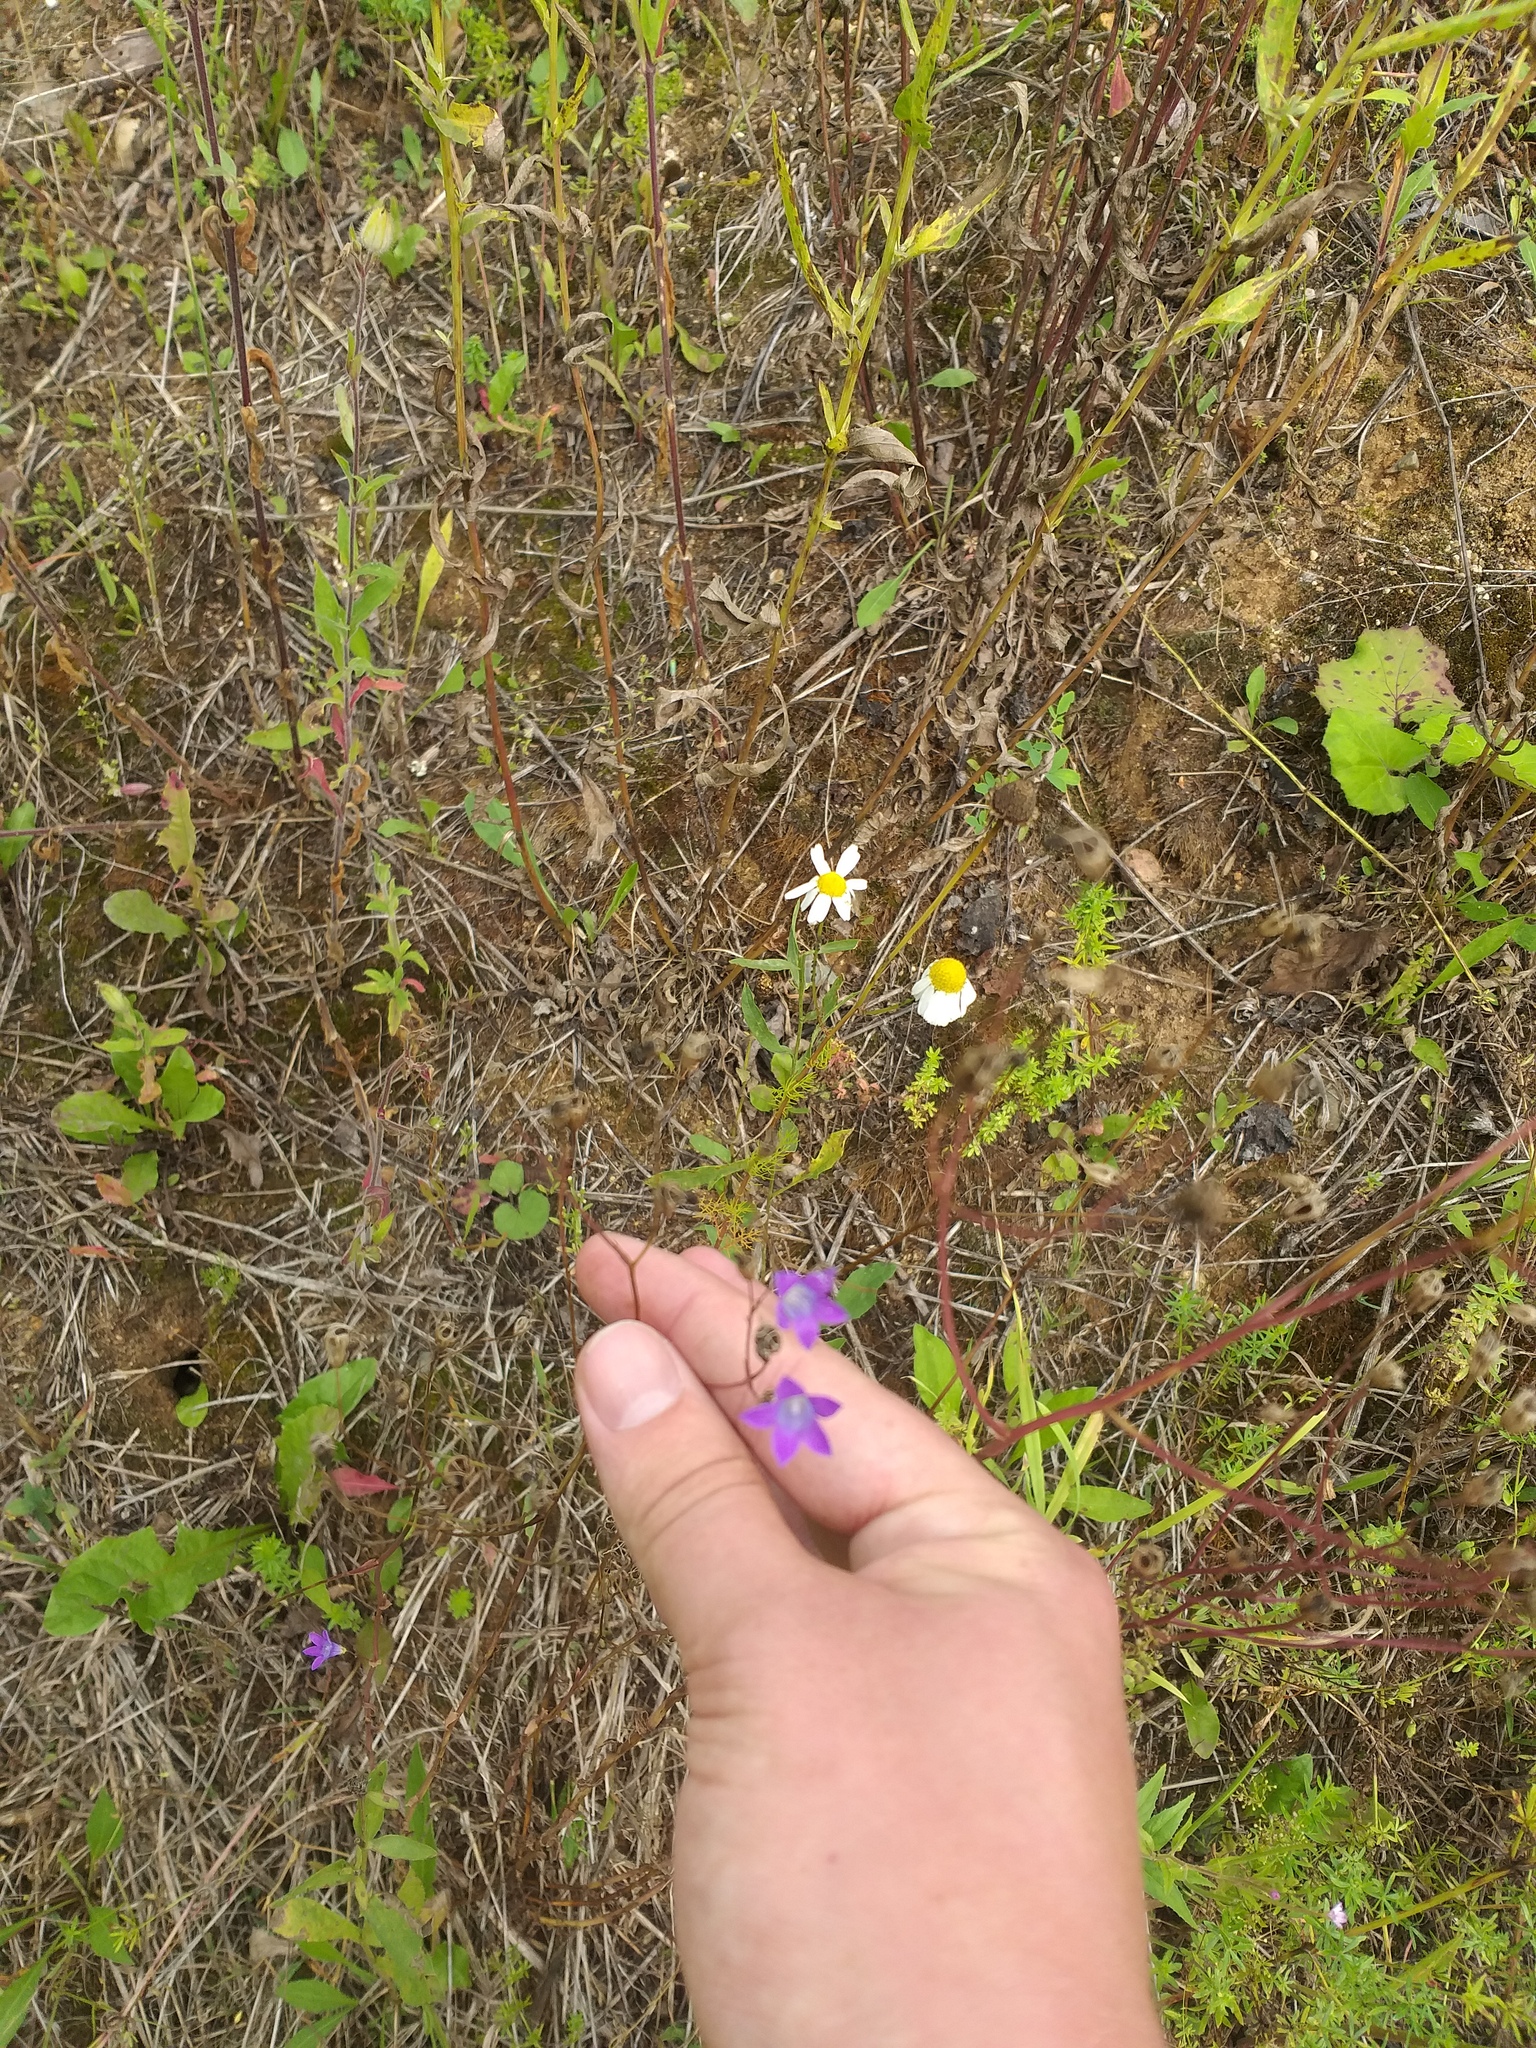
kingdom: Plantae
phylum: Tracheophyta
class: Magnoliopsida
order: Asterales
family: Campanulaceae
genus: Campanula
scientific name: Campanula patula
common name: Spreading bellflower
